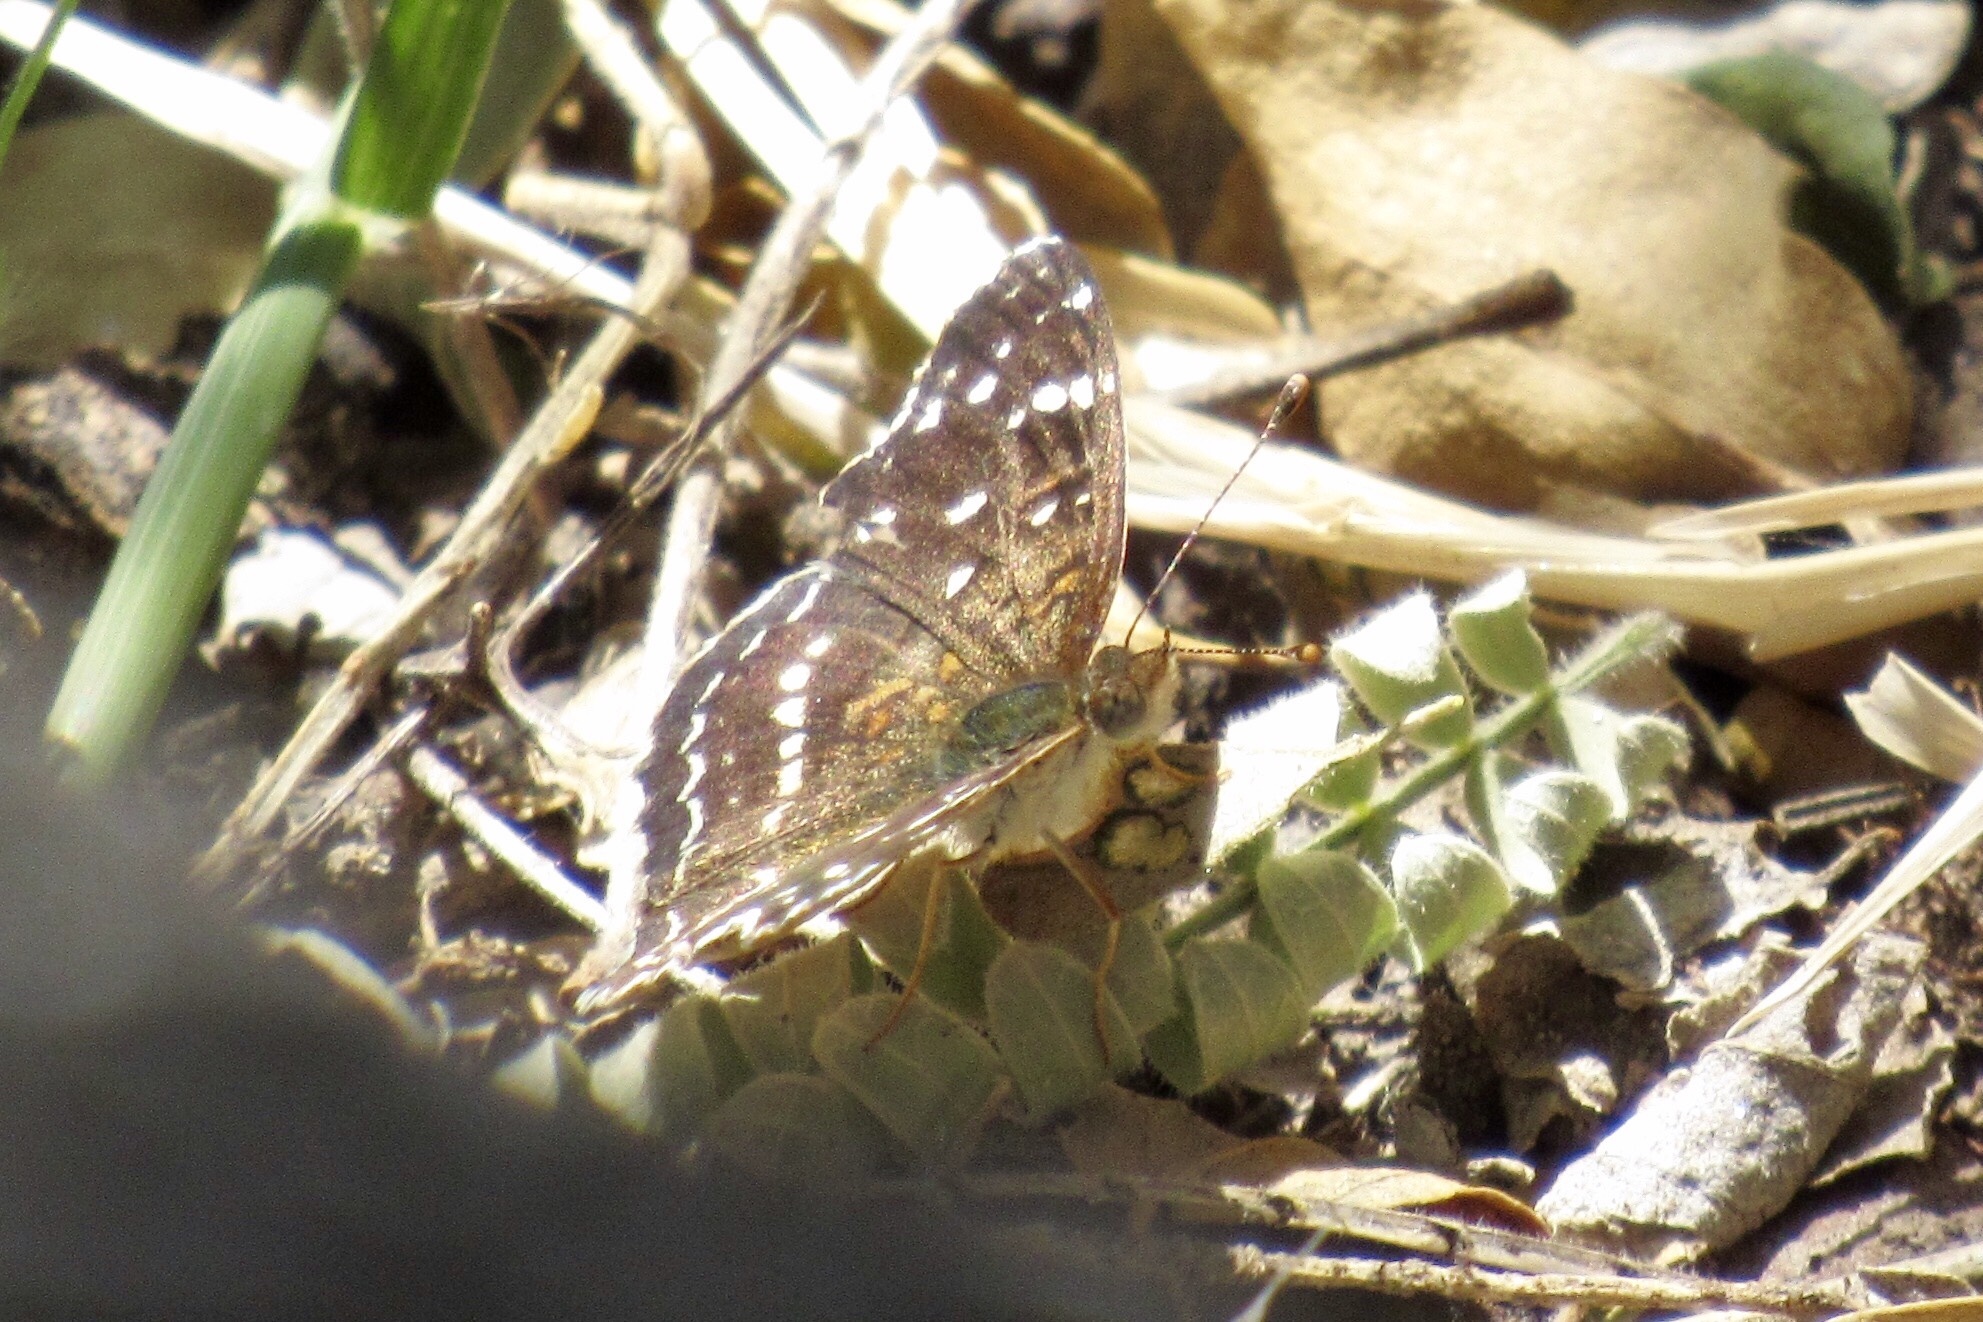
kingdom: Animalia
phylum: Arthropoda
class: Insecta
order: Lepidoptera
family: Nymphalidae
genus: Anthanassa
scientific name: Anthanassa texana
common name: Texan crescent
